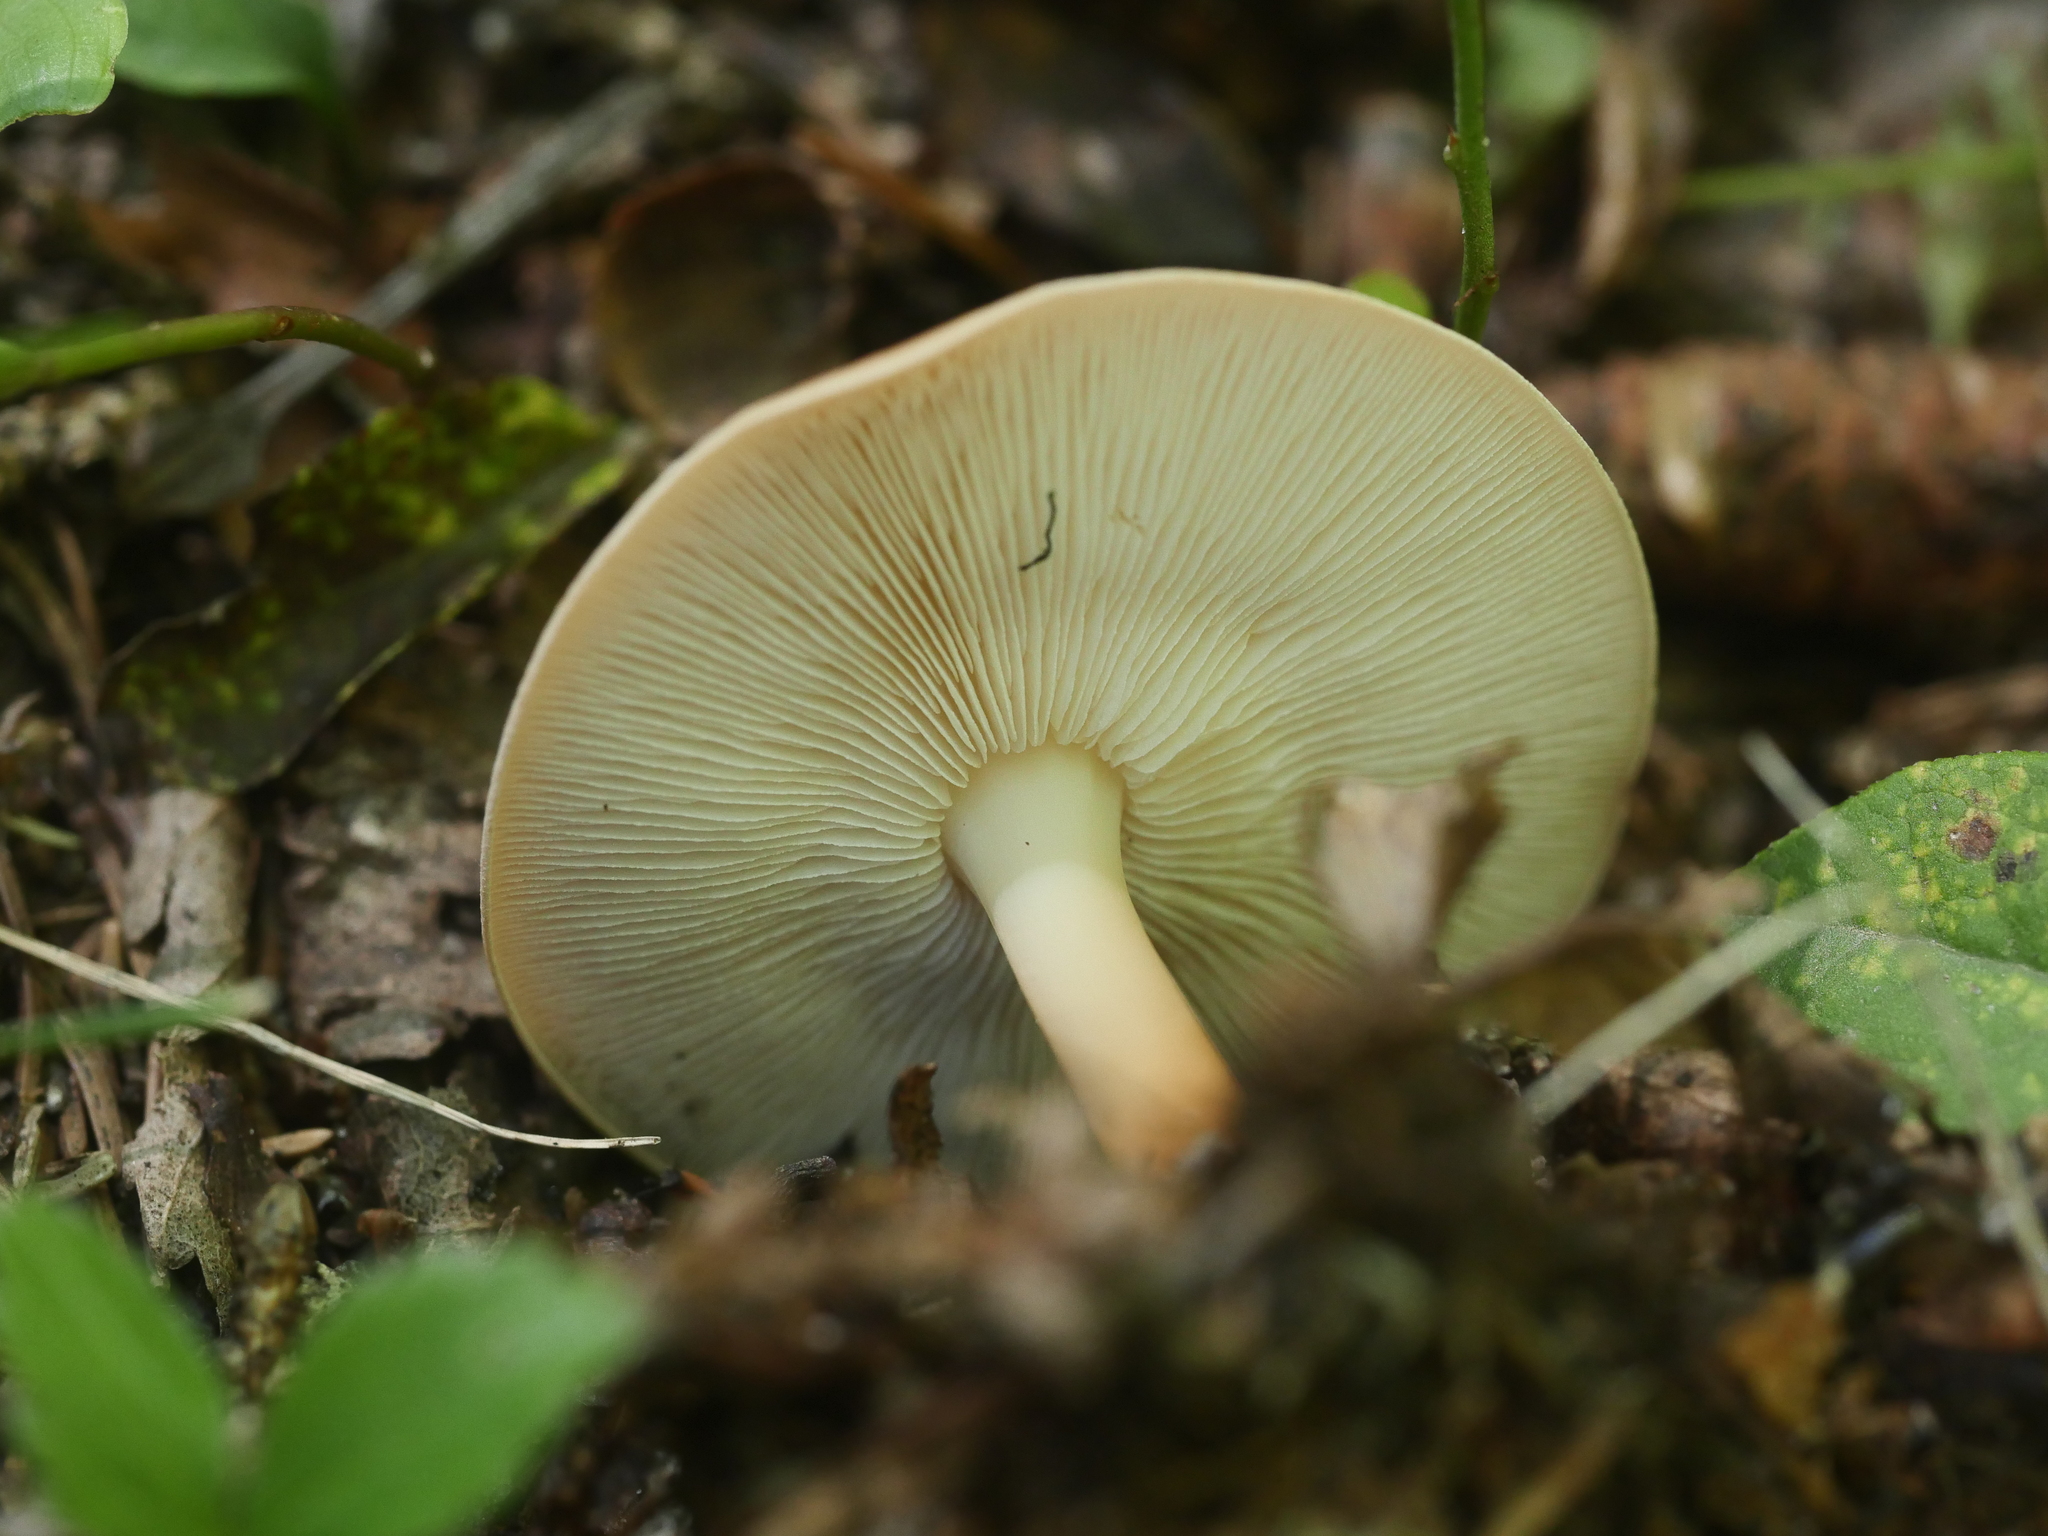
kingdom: Fungi
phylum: Basidiomycota
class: Agaricomycetes
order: Agaricales
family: Omphalotaceae
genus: Gymnopus
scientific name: Gymnopus dryophilus
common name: Penny top
